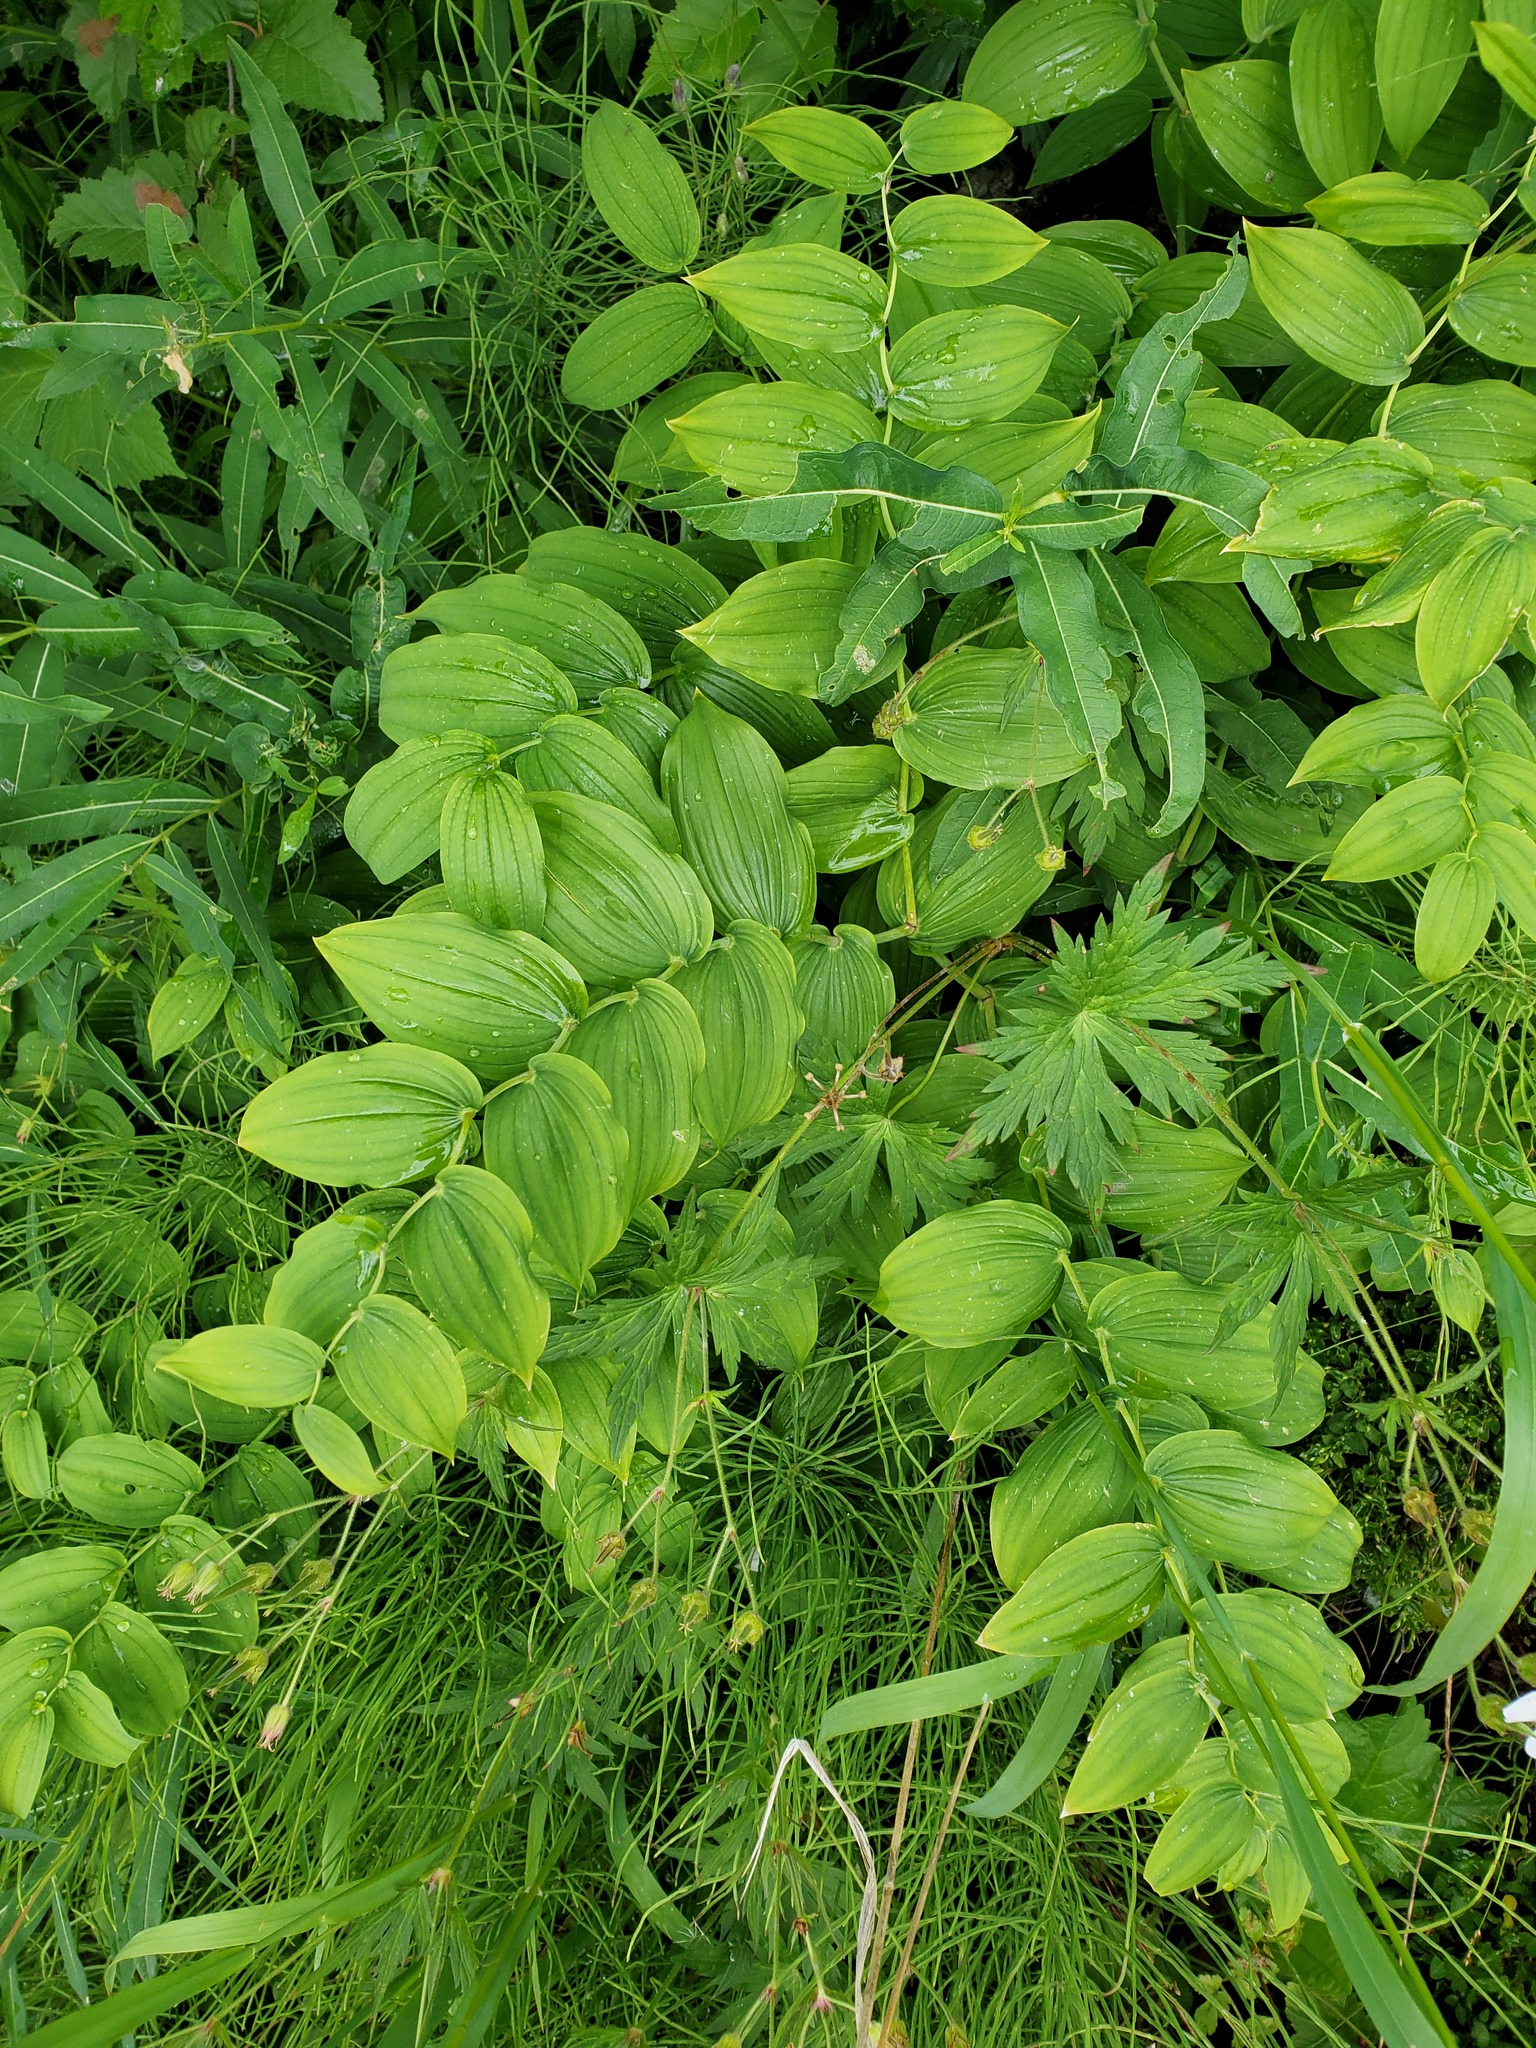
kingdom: Plantae
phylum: Tracheophyta
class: Liliopsida
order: Liliales
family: Liliaceae
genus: Streptopus
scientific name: Streptopus amplexifolius
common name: Clasp twisted stalk
